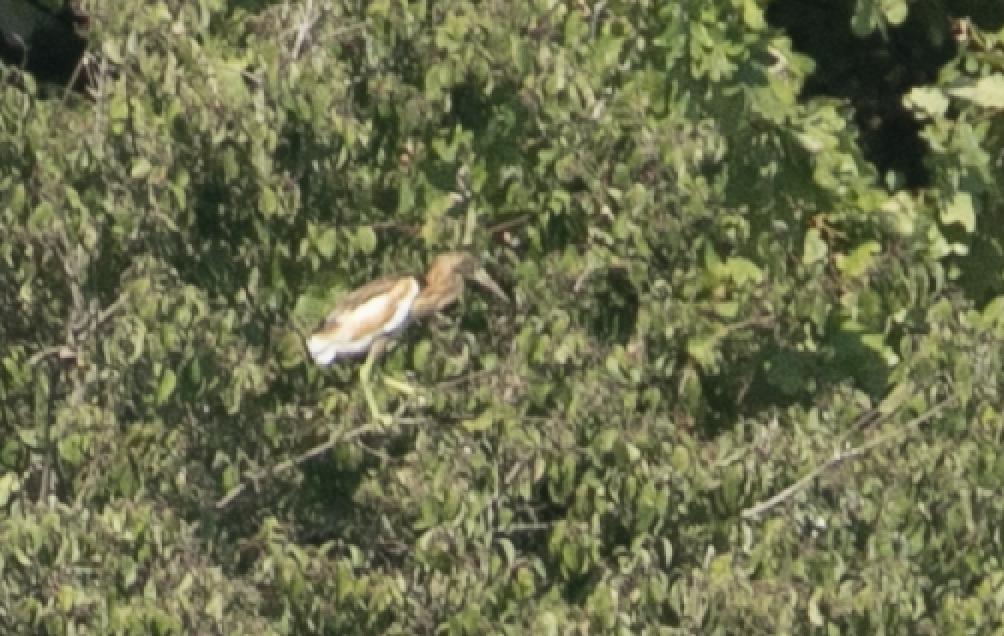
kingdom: Animalia
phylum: Chordata
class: Aves
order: Pelecaniformes
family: Ardeidae
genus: Ardeola
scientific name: Ardeola ralloides
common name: Squacco heron
